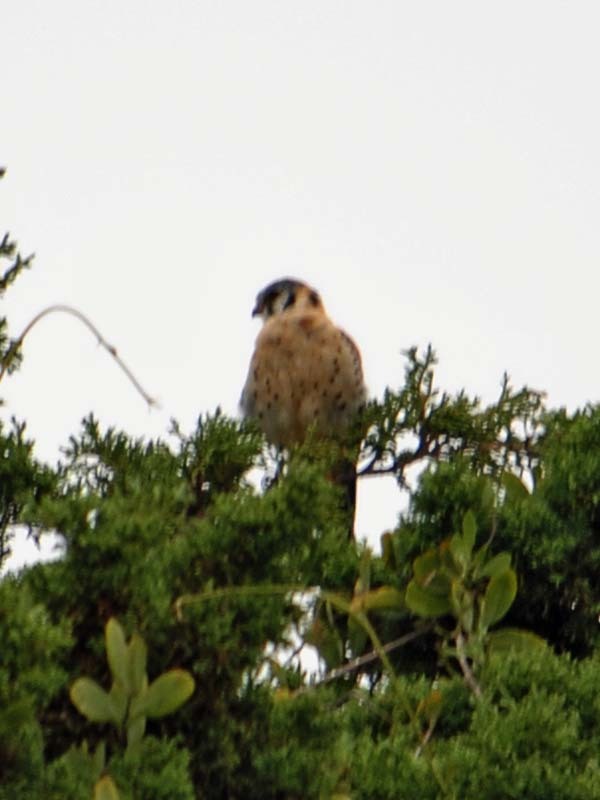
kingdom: Animalia
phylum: Chordata
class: Aves
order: Falconiformes
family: Falconidae
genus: Falco
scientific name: Falco sparverius
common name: American kestrel
